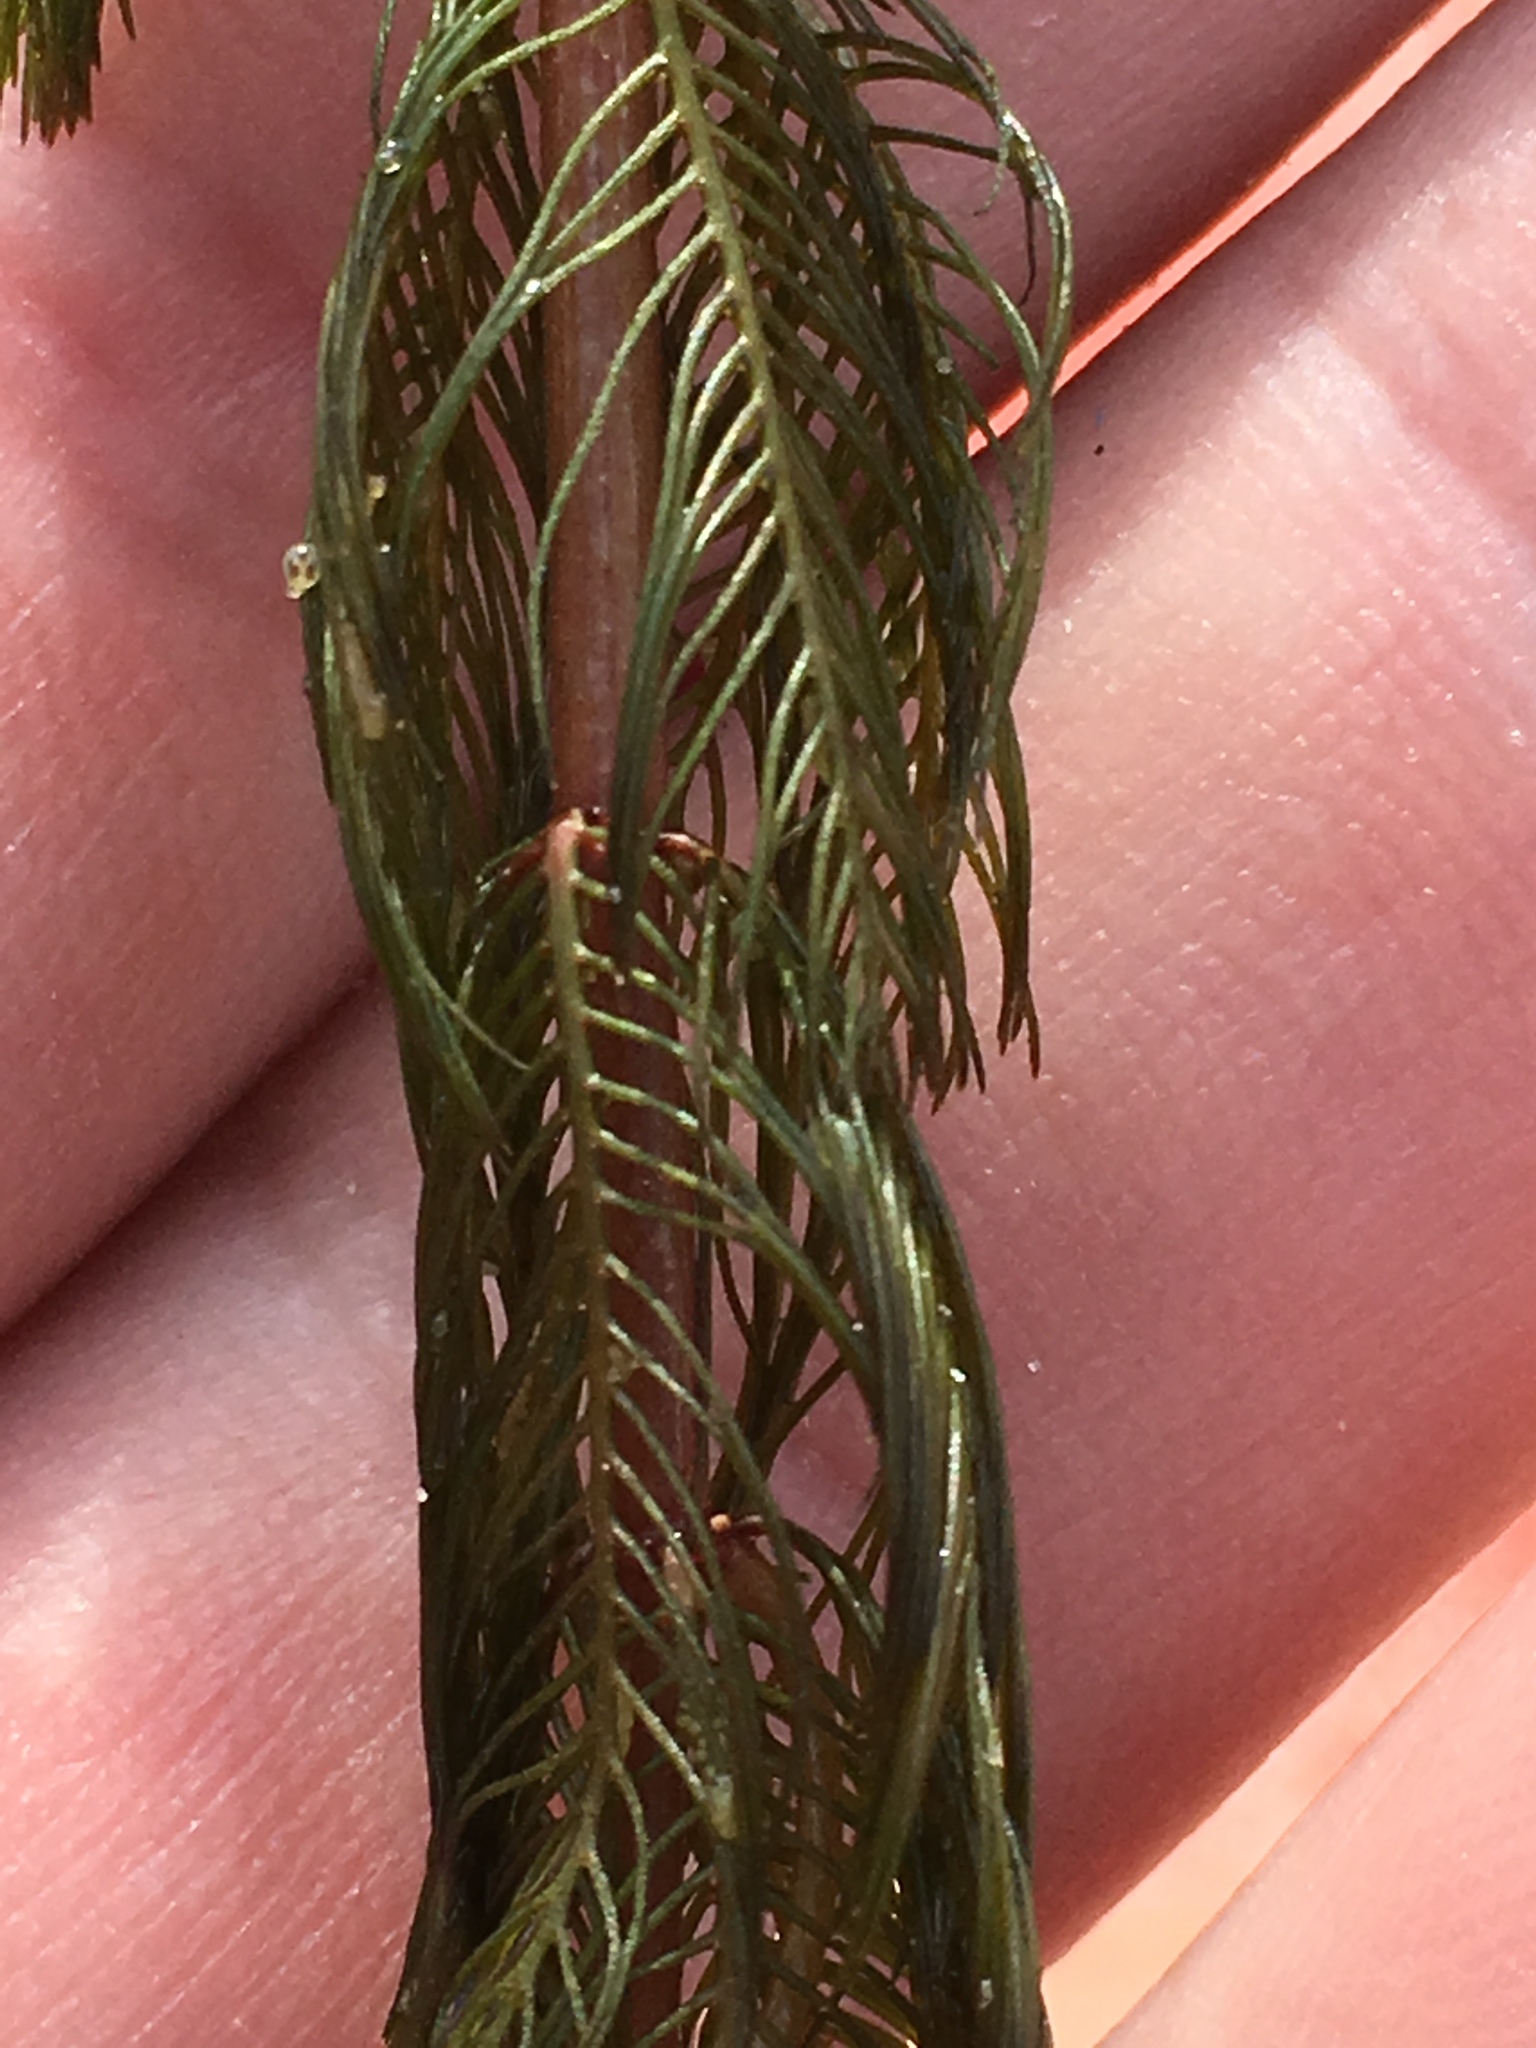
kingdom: Plantae
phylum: Tracheophyta
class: Magnoliopsida
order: Saxifragales
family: Haloragaceae
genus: Myriophyllum
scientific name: Myriophyllum spicatum
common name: Spiked water-milfoil
